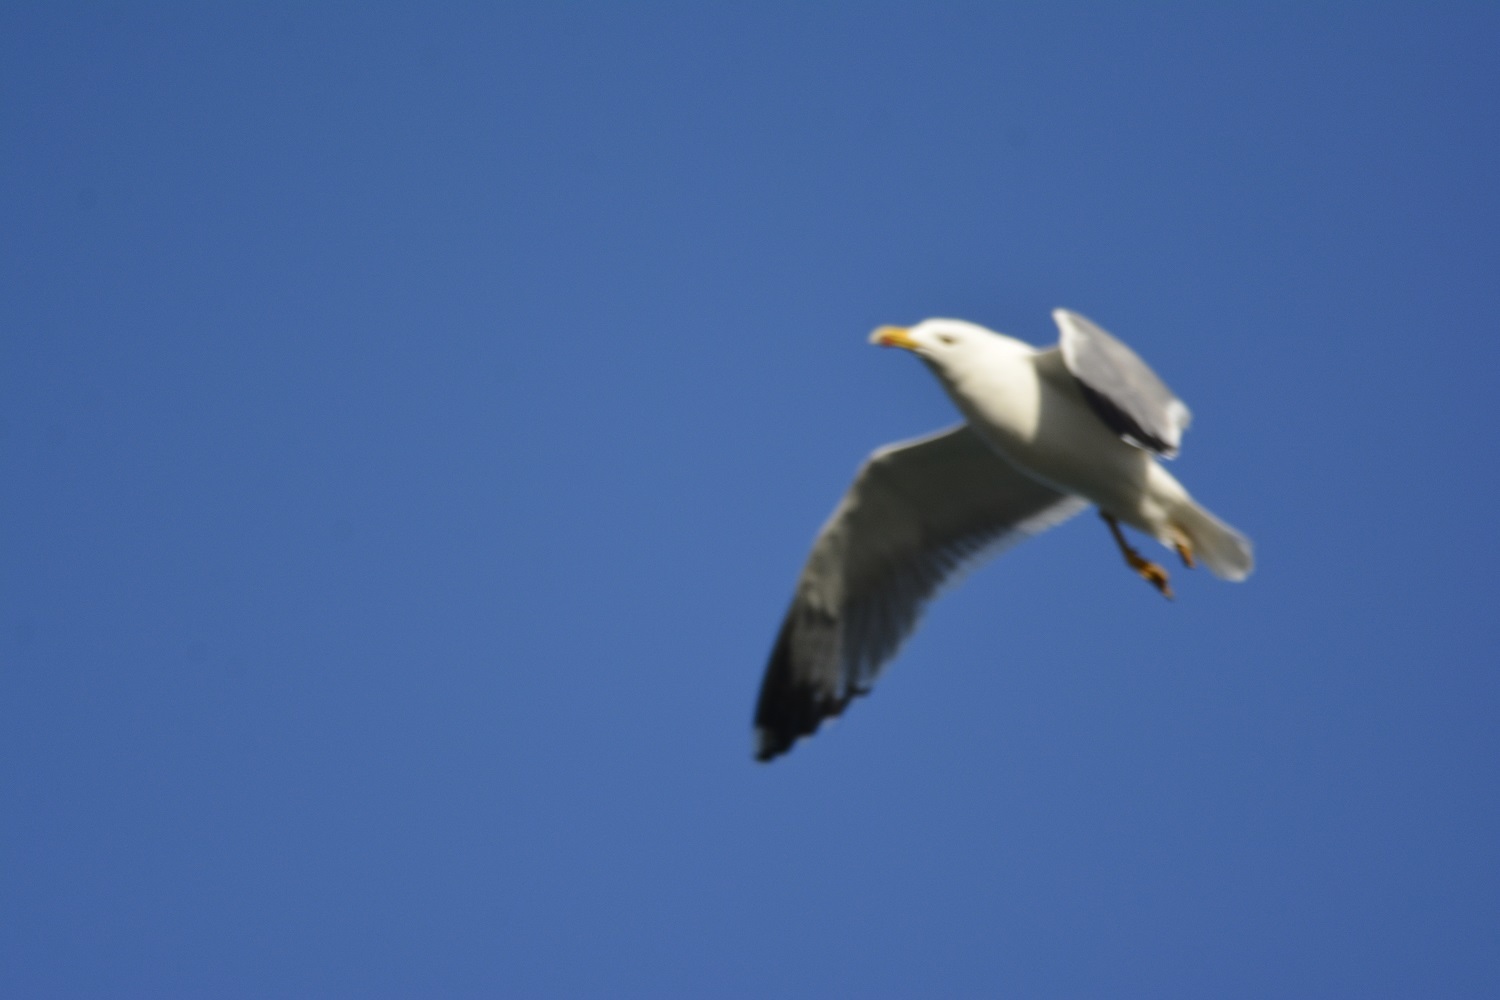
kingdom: Animalia
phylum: Chordata
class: Aves
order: Charadriiformes
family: Laridae
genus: Larus
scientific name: Larus michahellis
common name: Yellow-legged gull
